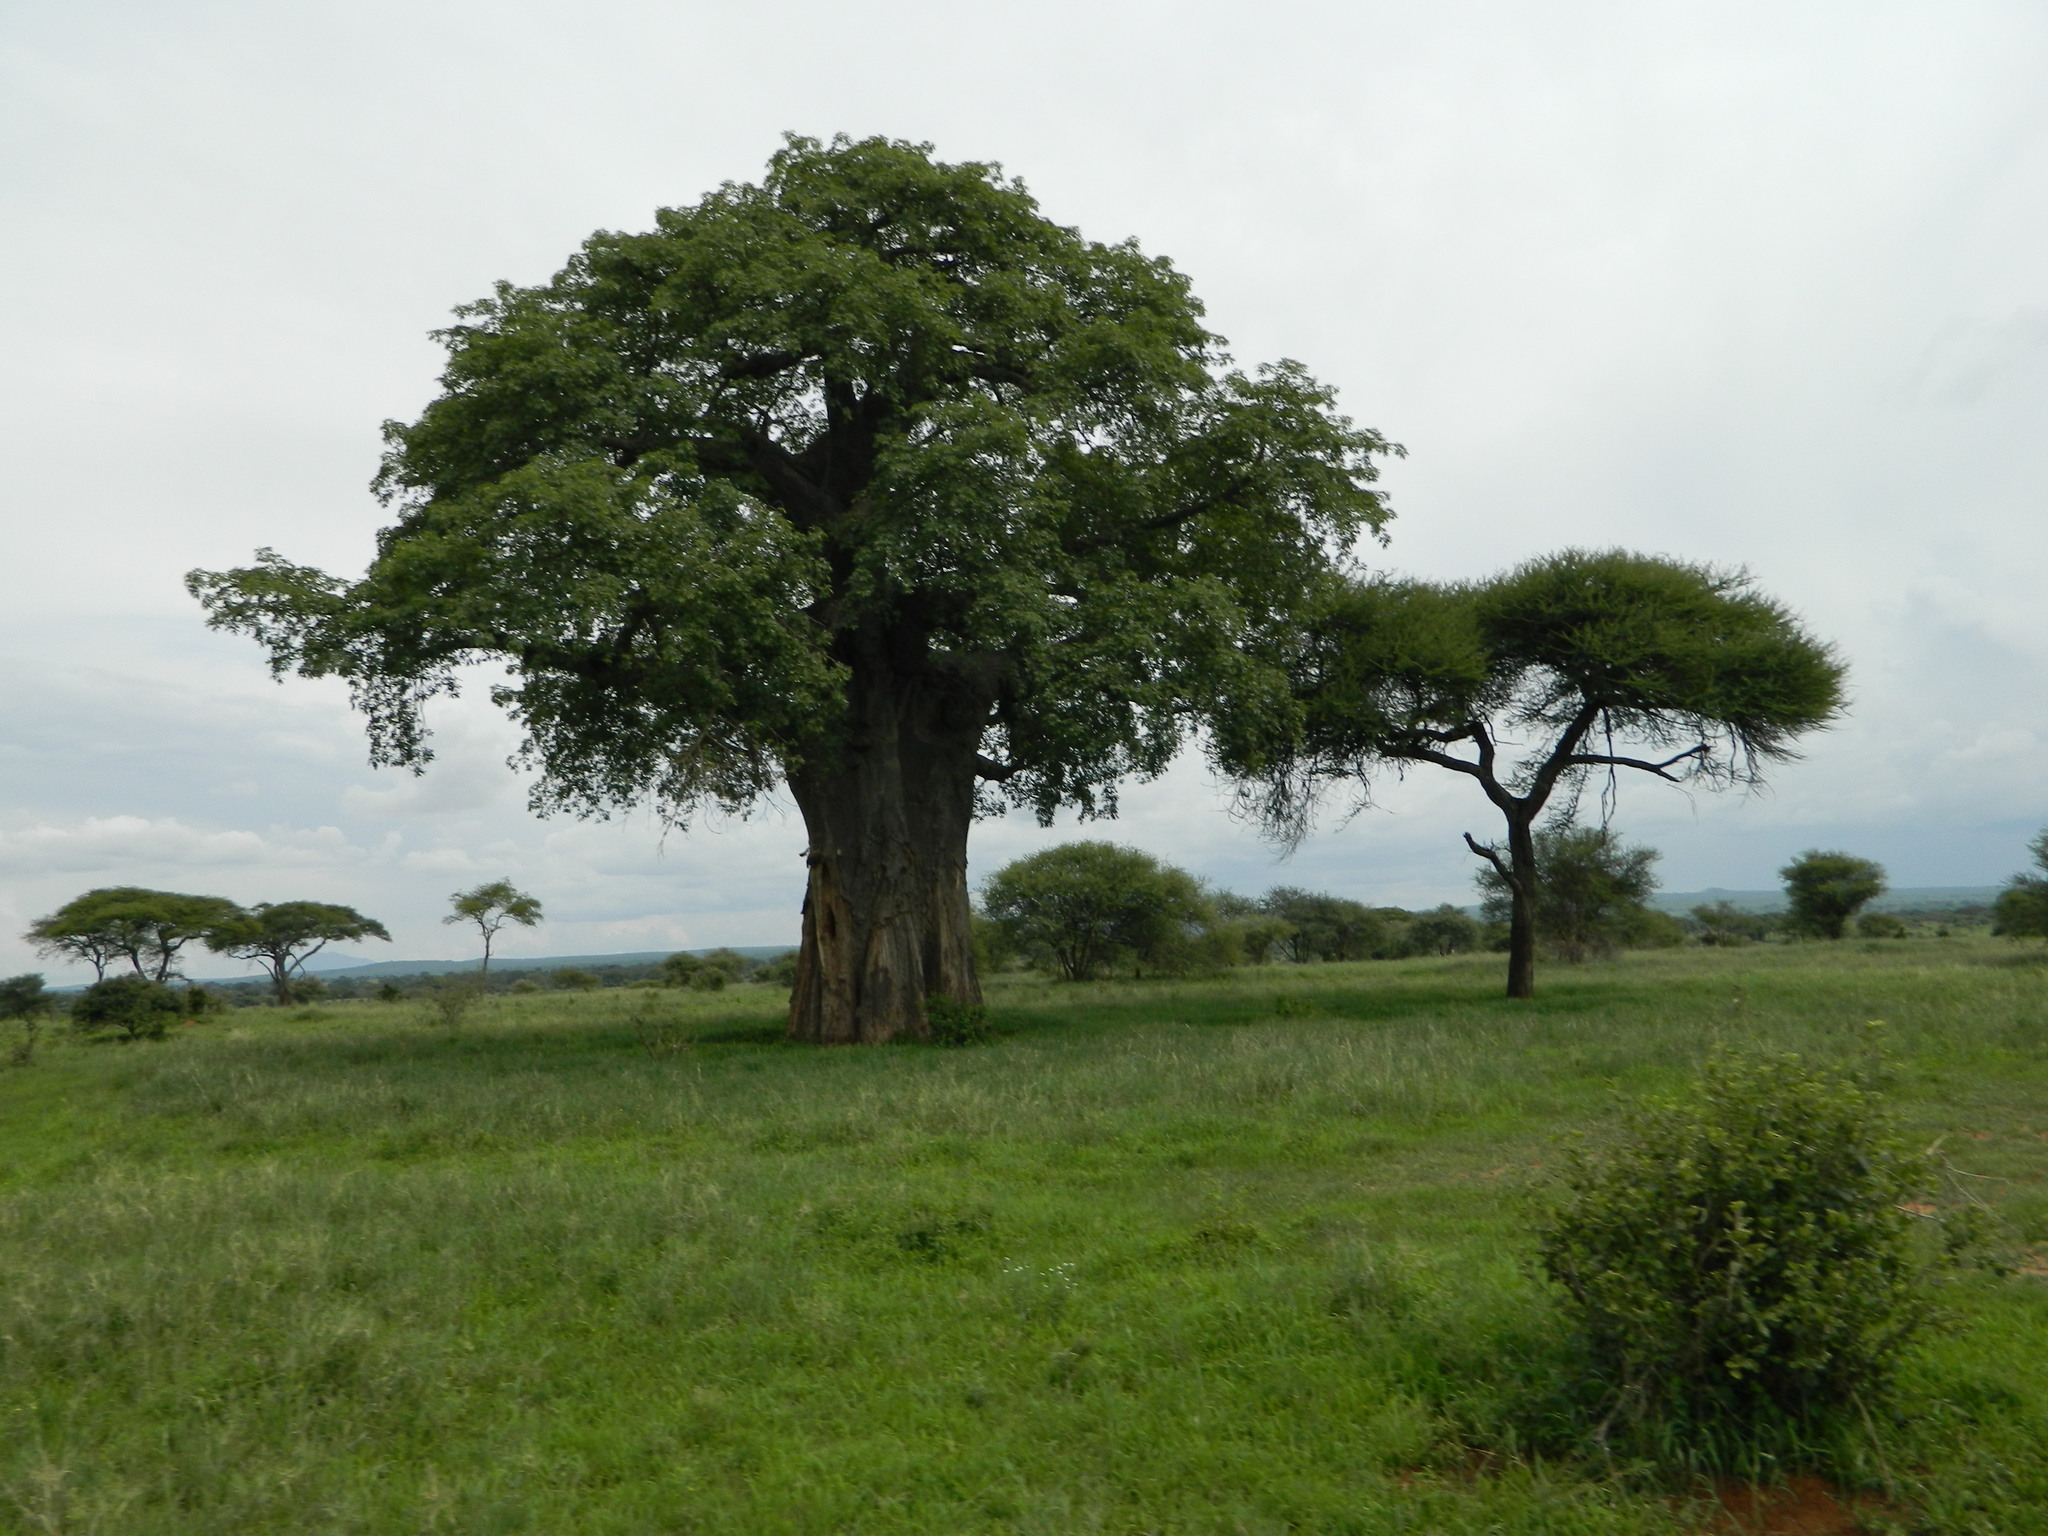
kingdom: Plantae
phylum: Tracheophyta
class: Magnoliopsida
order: Malvales
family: Malvaceae
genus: Adansonia
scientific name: Adansonia digitata
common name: Dead-rat-tree
